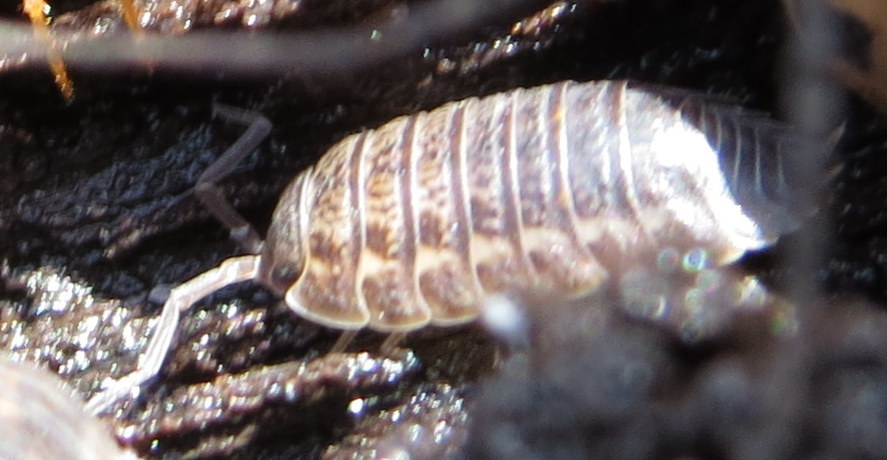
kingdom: Animalia
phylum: Arthropoda
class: Malacostraca
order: Isopoda
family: Trachelipodidae
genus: Trachelipus
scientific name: Trachelipus rathkii
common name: Isopod
